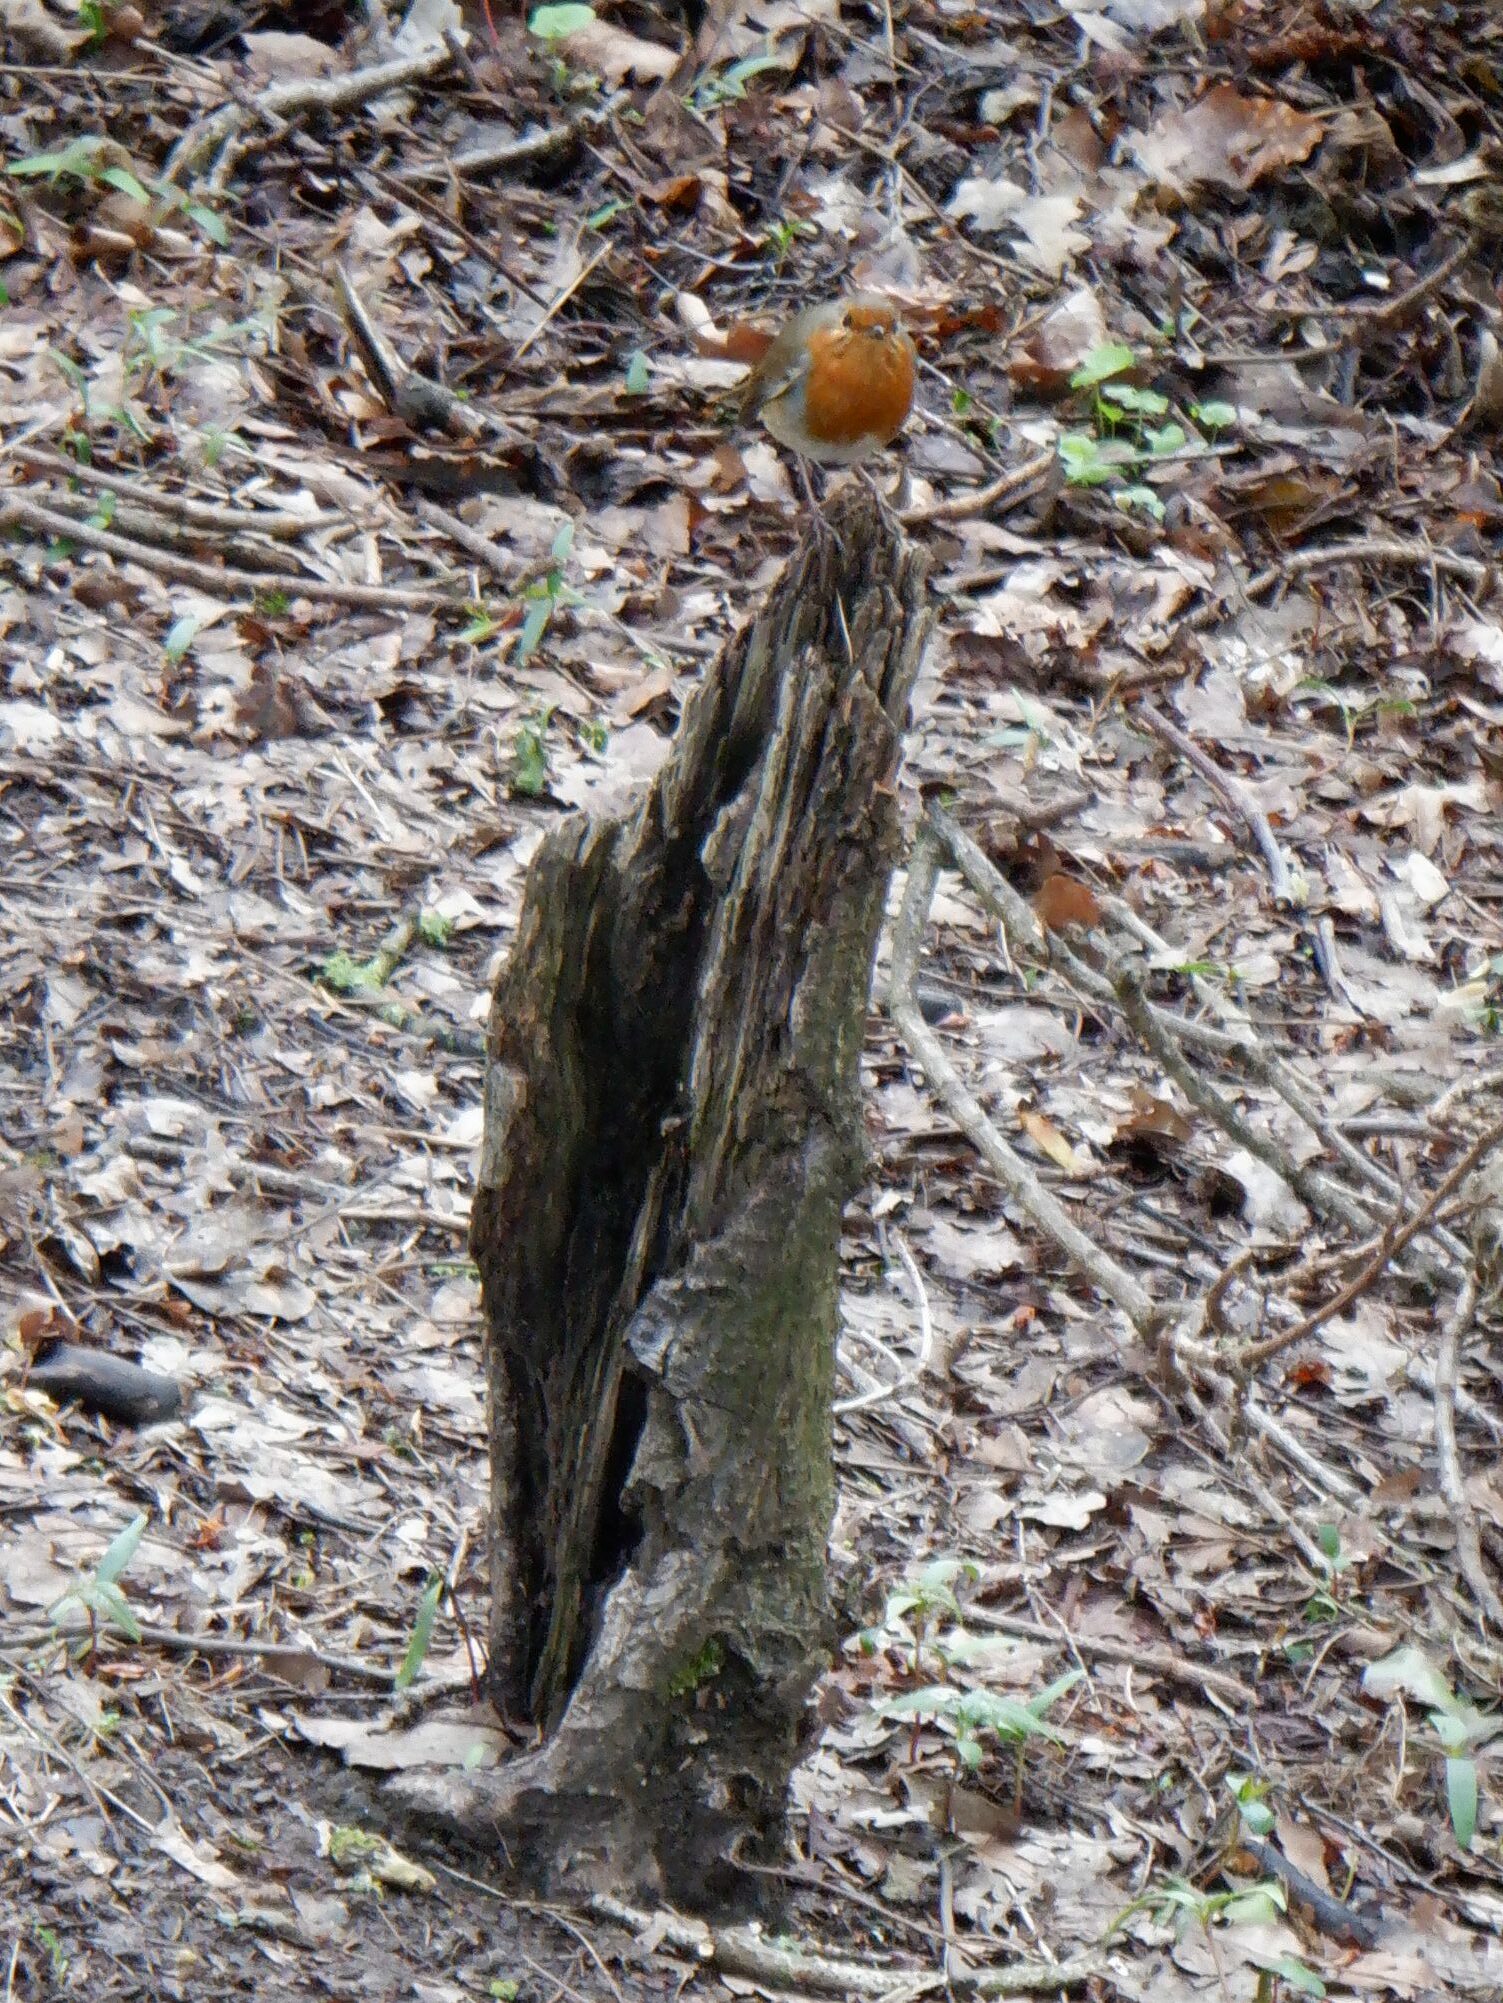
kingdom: Animalia
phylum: Chordata
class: Aves
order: Passeriformes
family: Muscicapidae
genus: Erithacus
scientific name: Erithacus rubecula
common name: European robin
